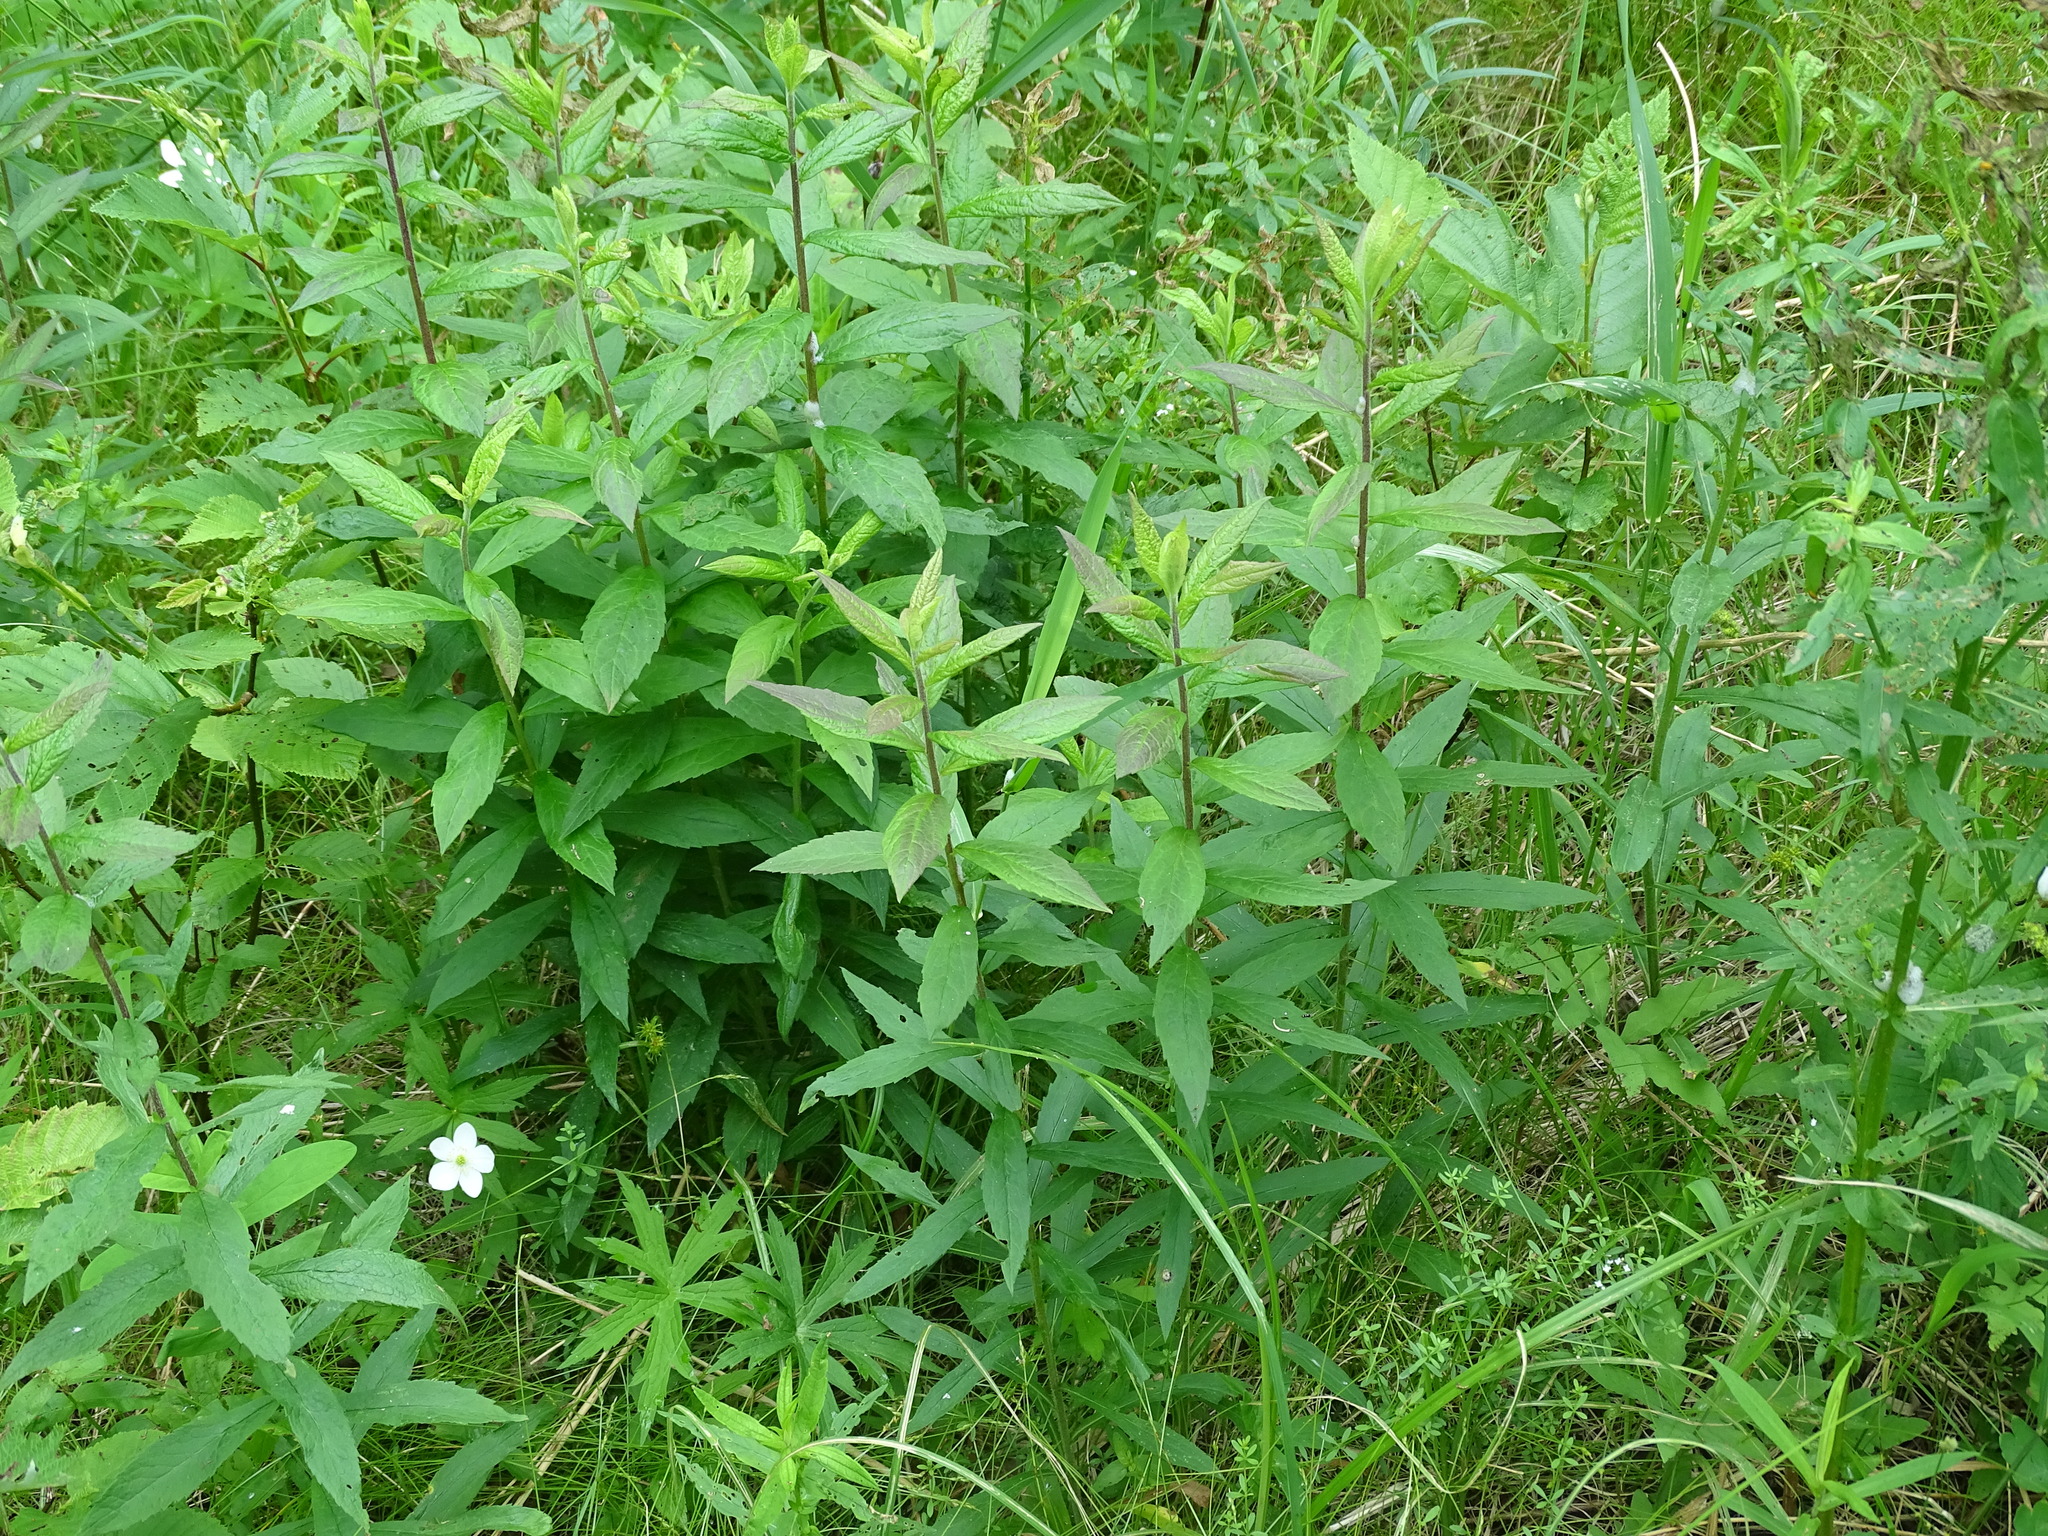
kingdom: Plantae
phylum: Tracheophyta
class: Magnoliopsida
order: Asterales
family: Asteraceae
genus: Solidago
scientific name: Solidago rugosa
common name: Rough-stemmed goldenrod
